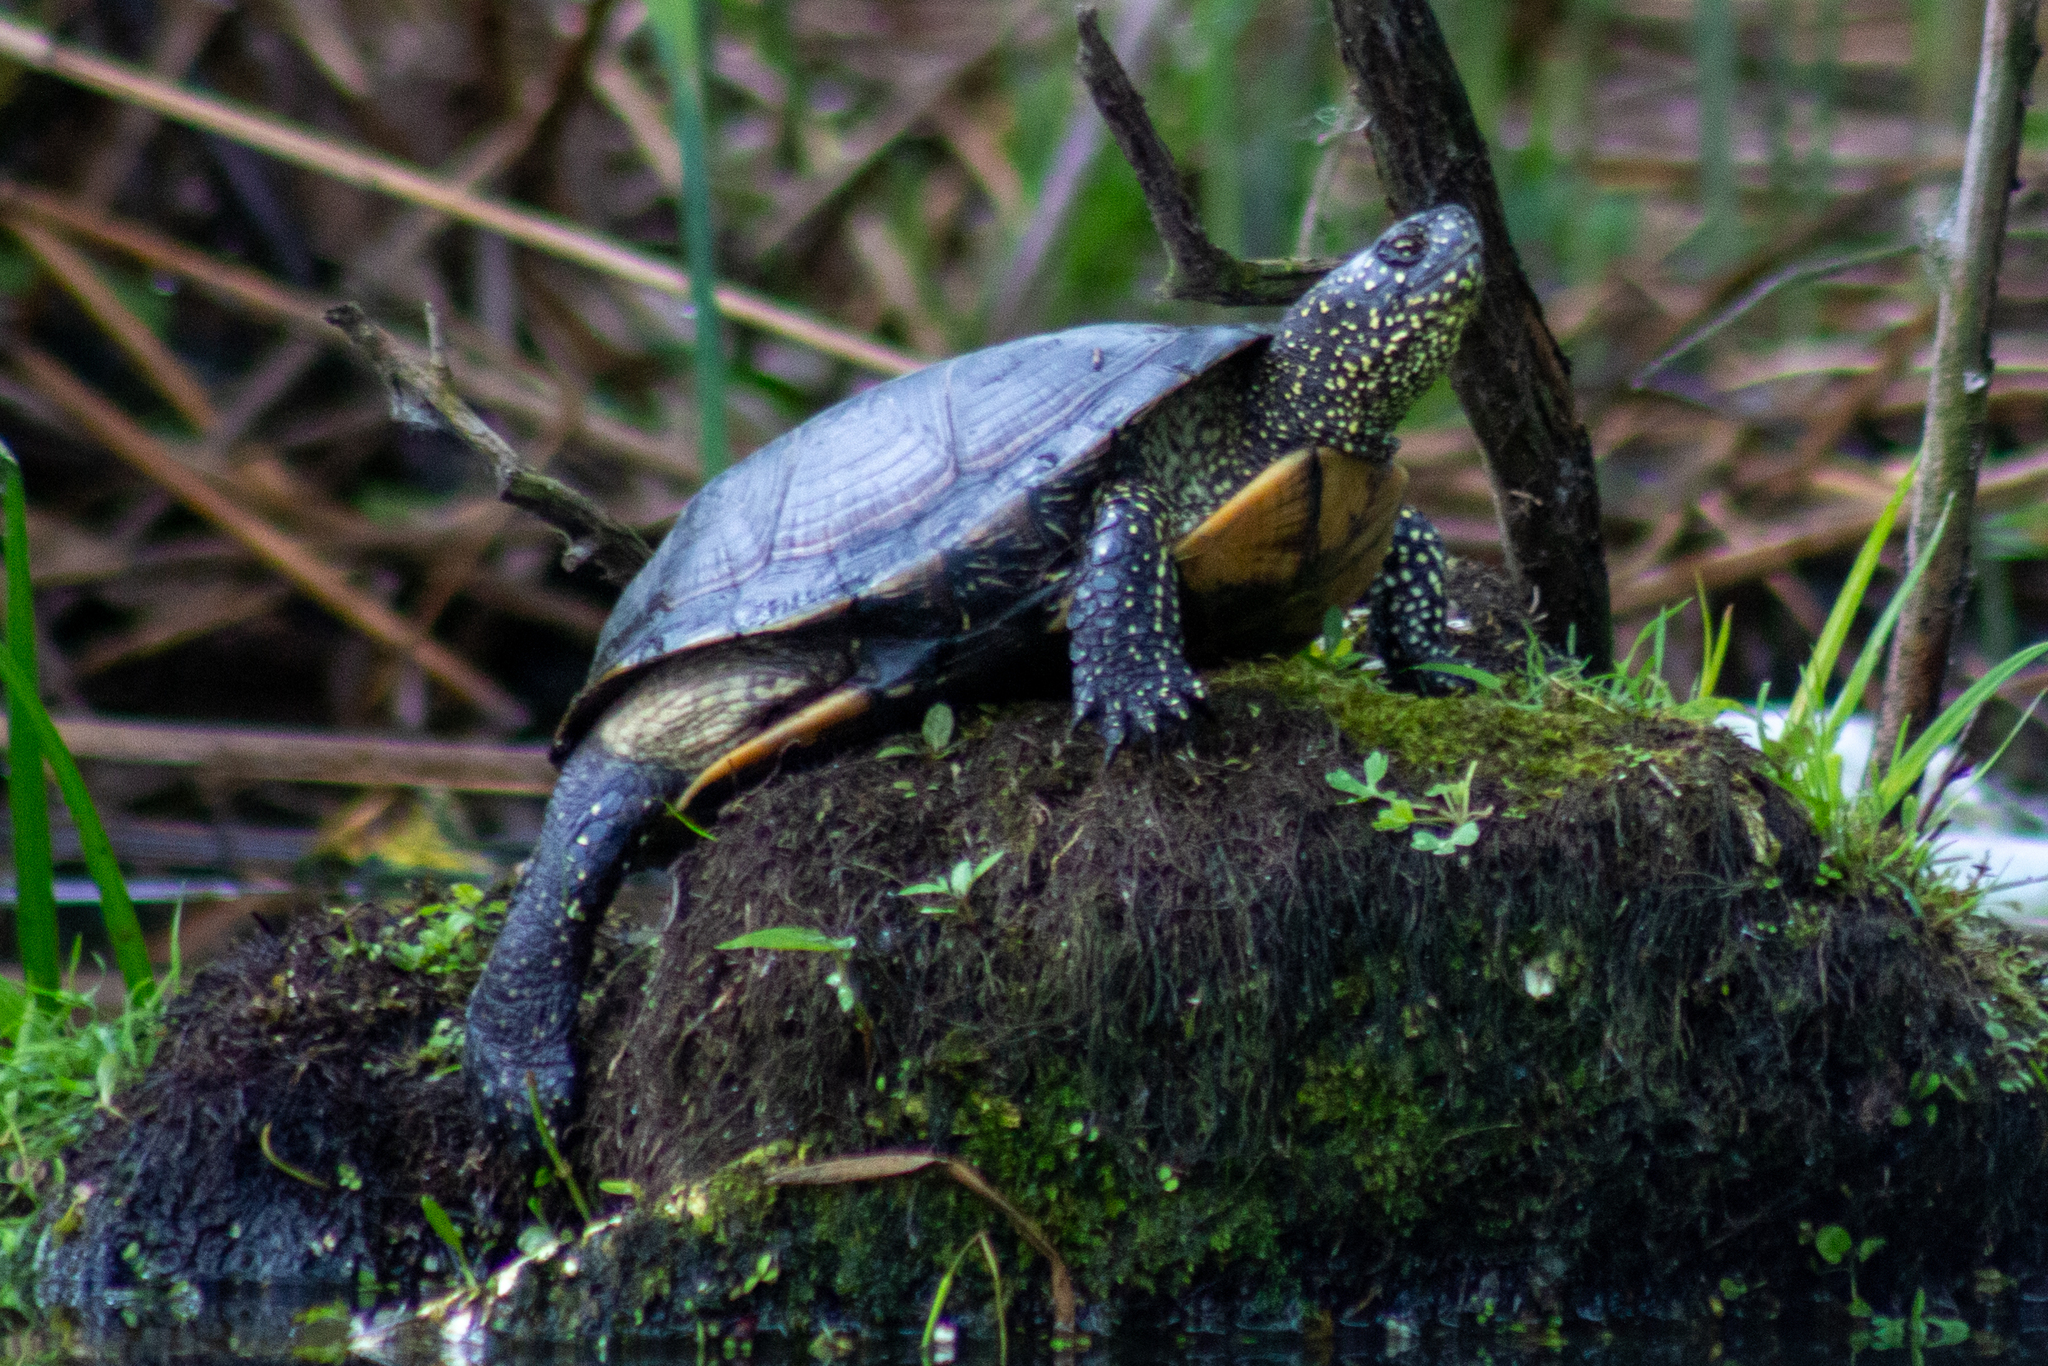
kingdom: Animalia
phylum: Chordata
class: Testudines
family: Emydidae
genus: Emys
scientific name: Emys orbicularis
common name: European pond turtle
